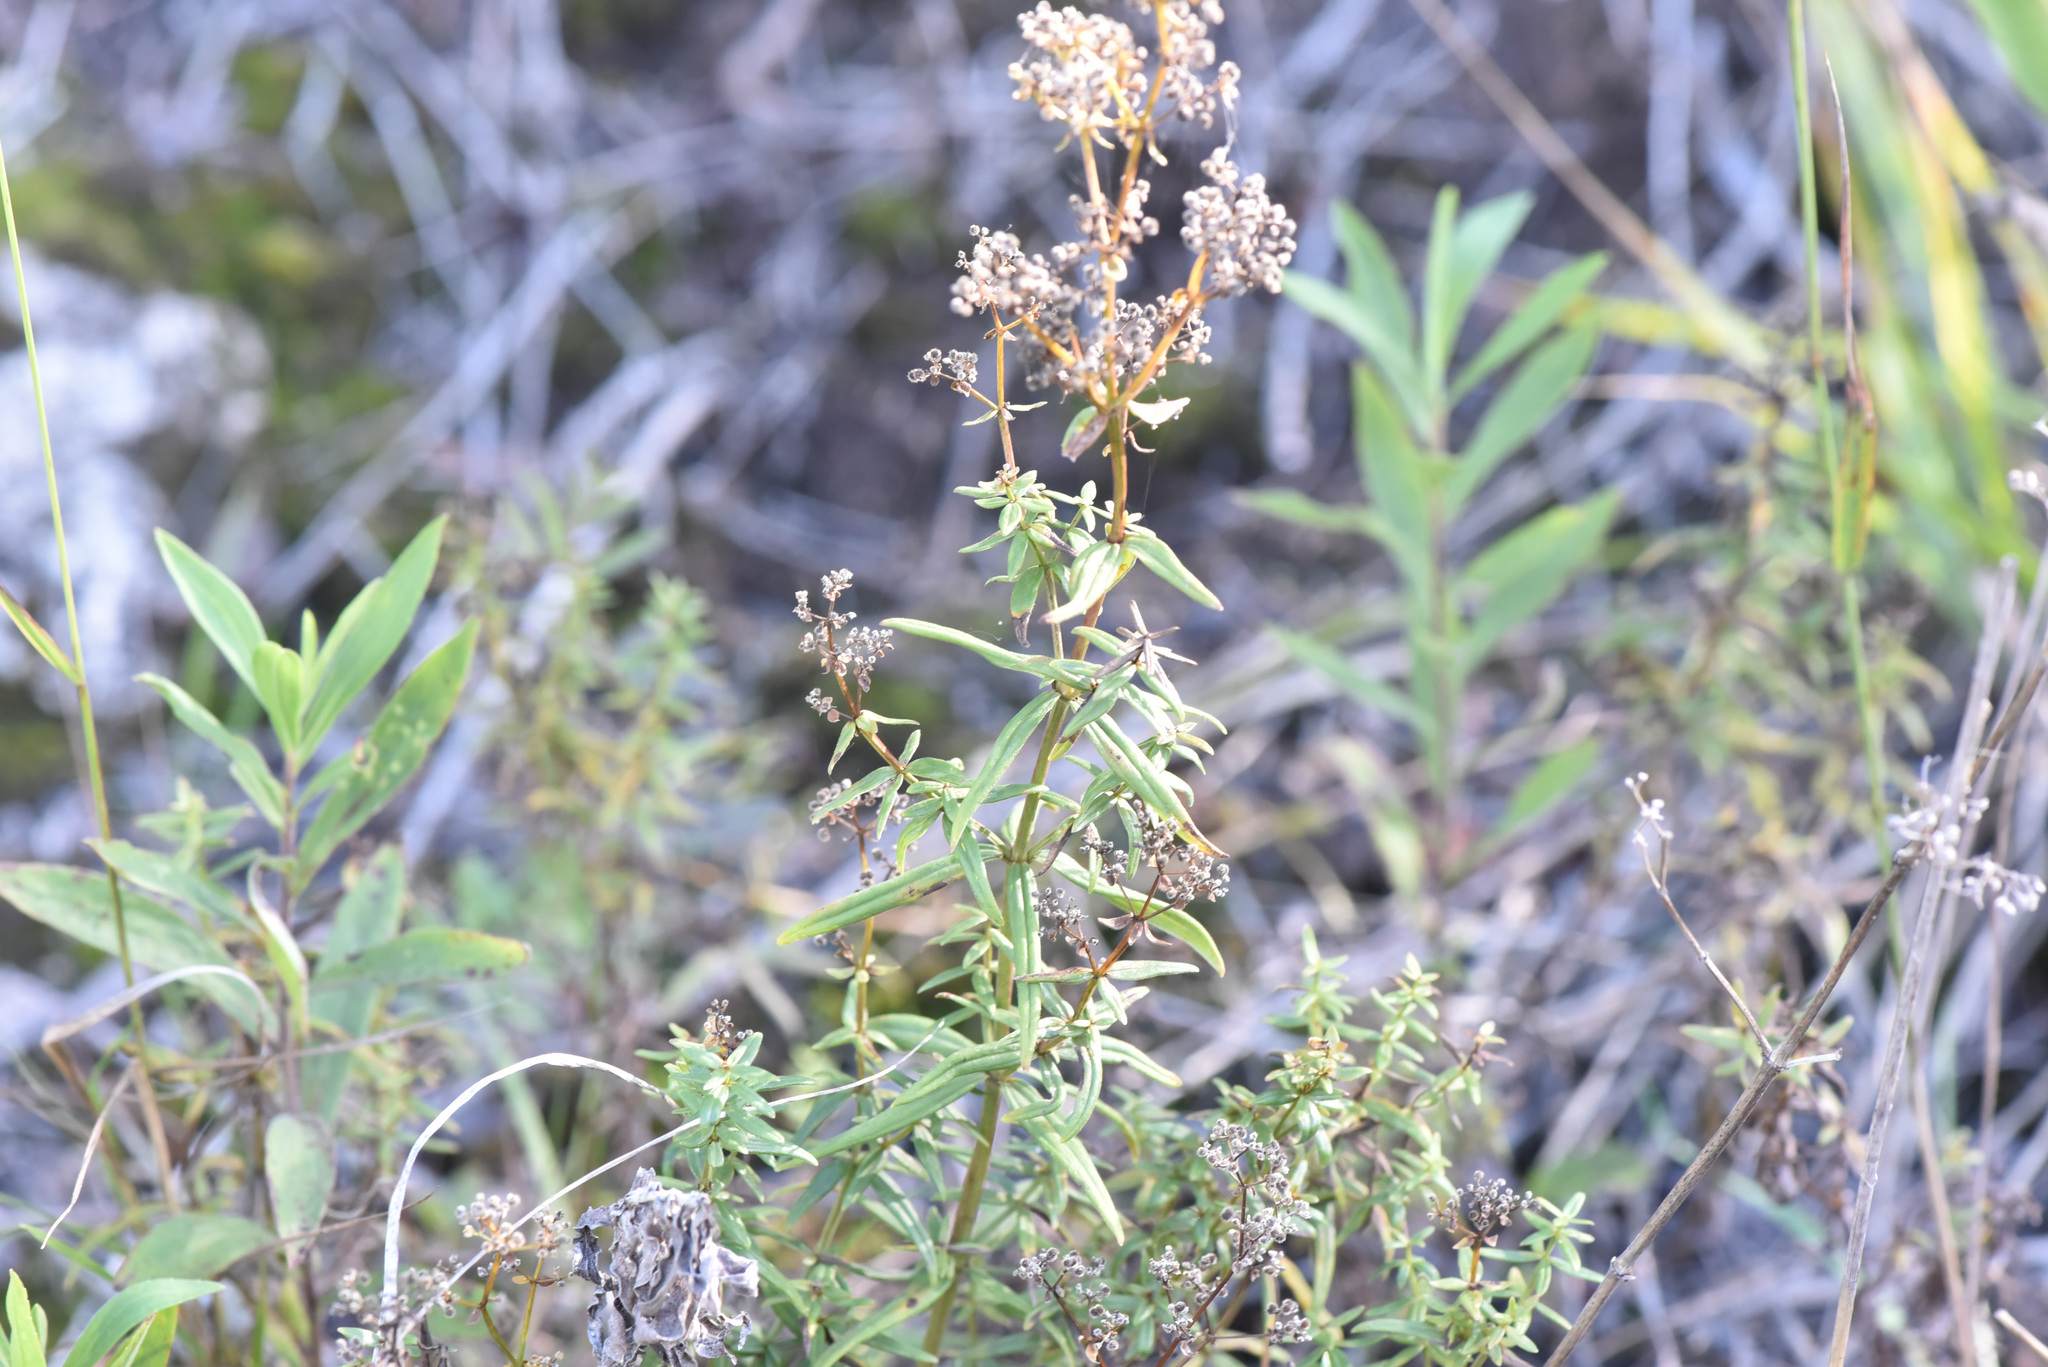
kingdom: Plantae
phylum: Tracheophyta
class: Magnoliopsida
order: Gentianales
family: Rubiaceae
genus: Galium
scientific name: Galium boreale
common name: Northern bedstraw
